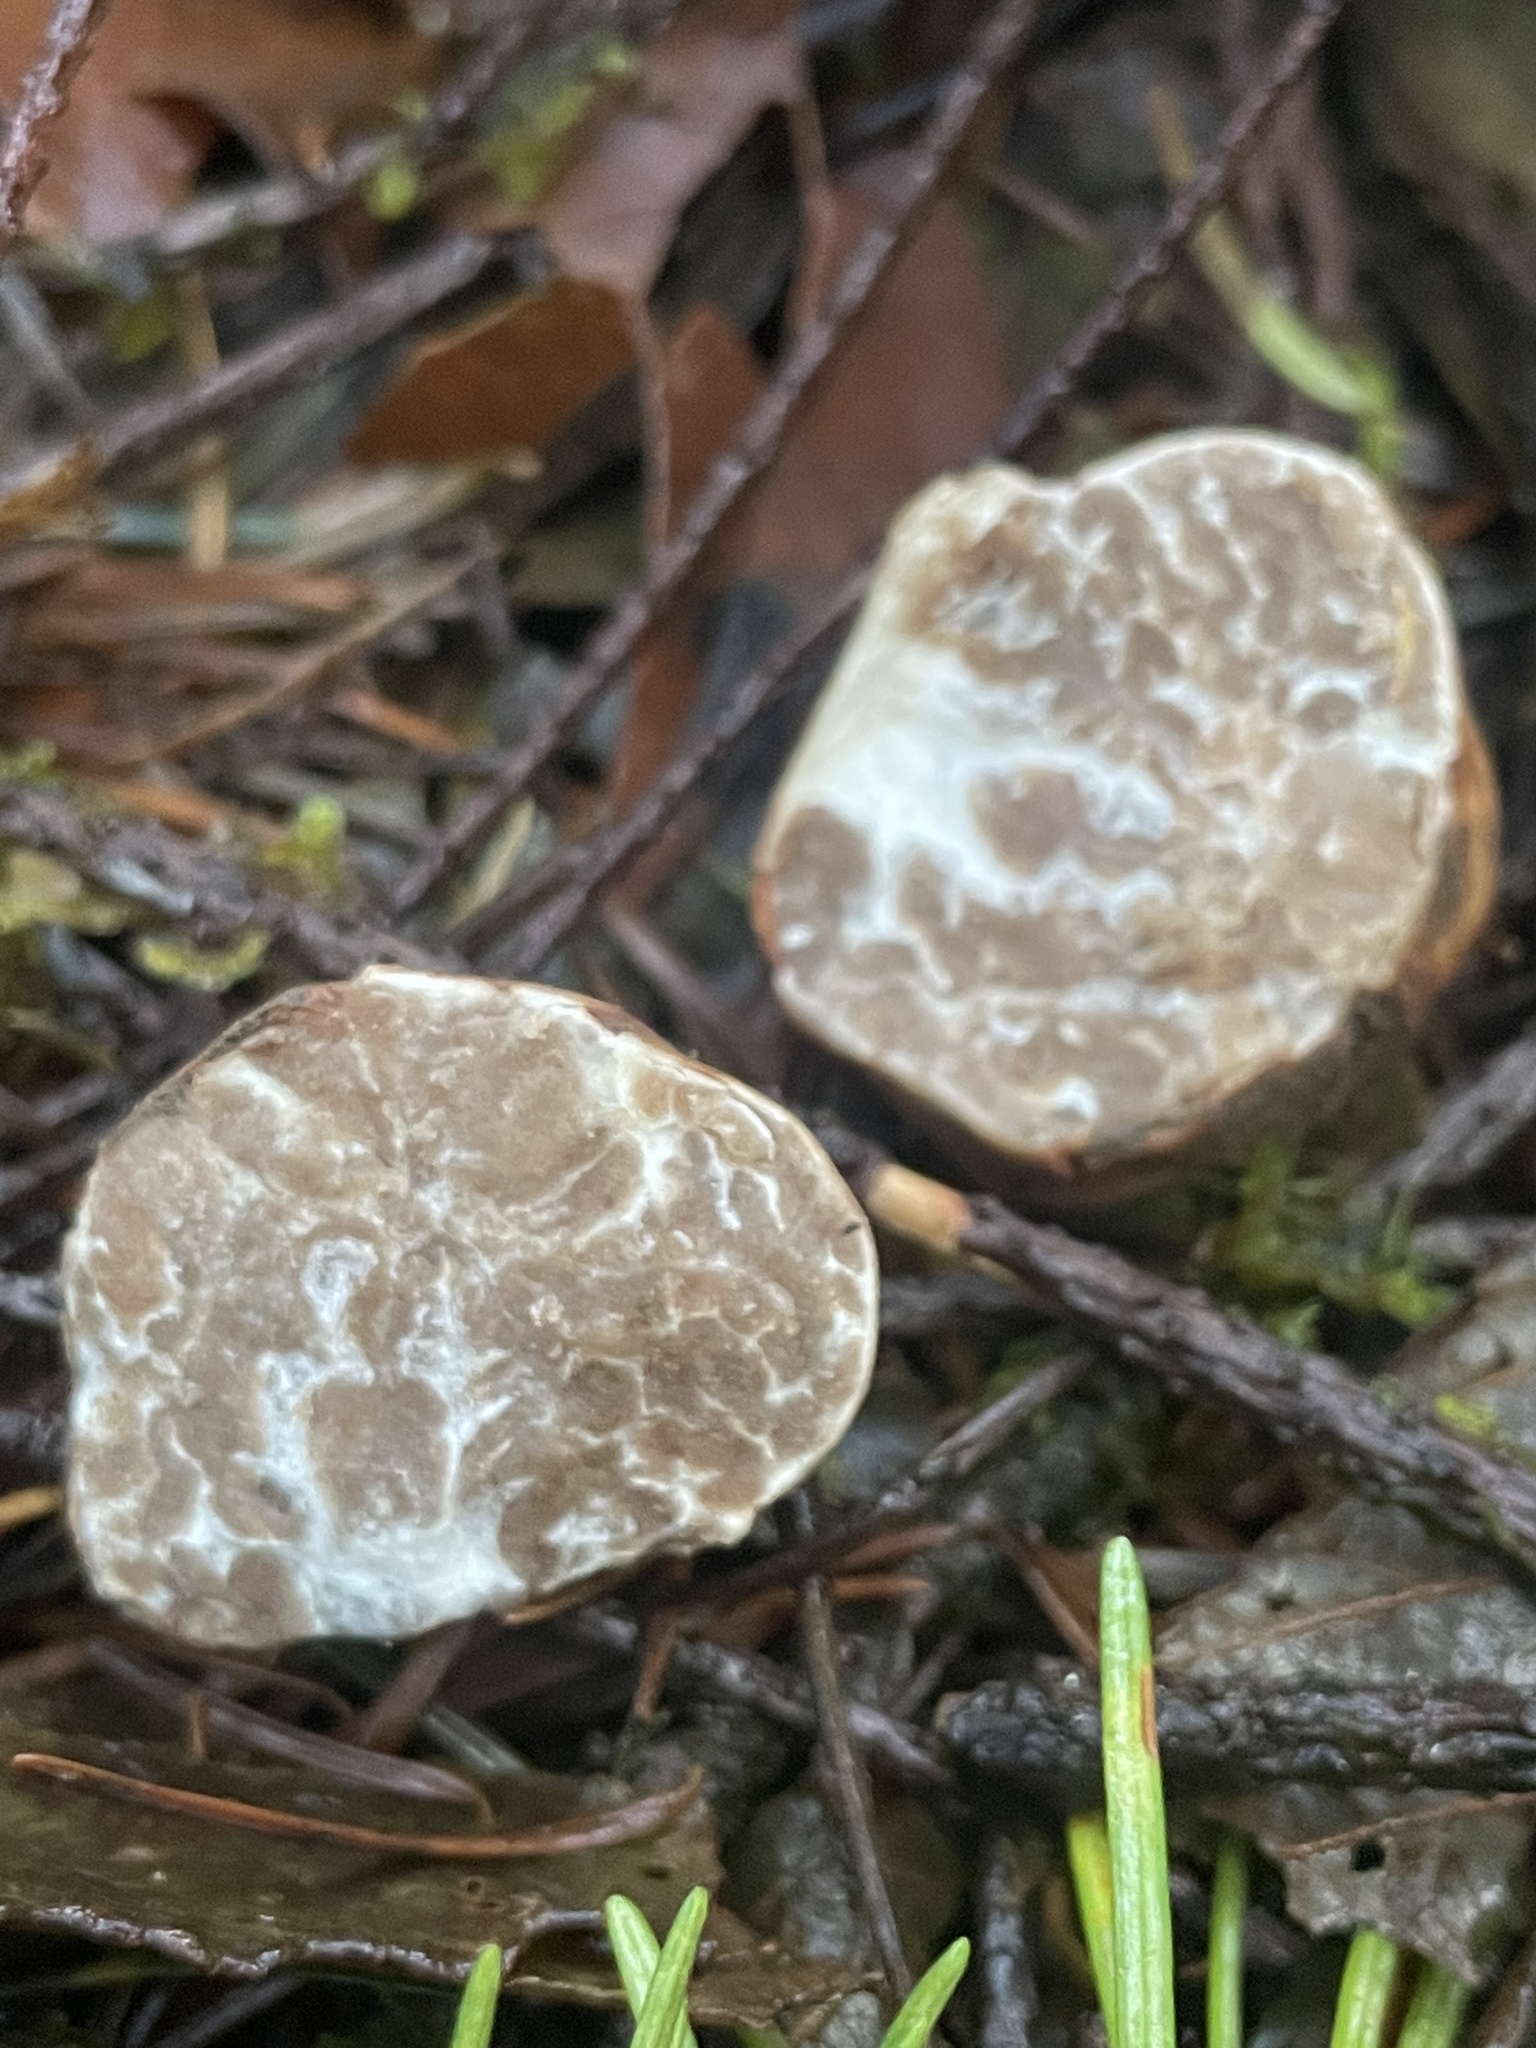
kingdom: Fungi
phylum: Ascomycota
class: Pezizomycetes
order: Pezizales
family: Tuberaceae
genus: Tuber
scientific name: Tuber oregonense
